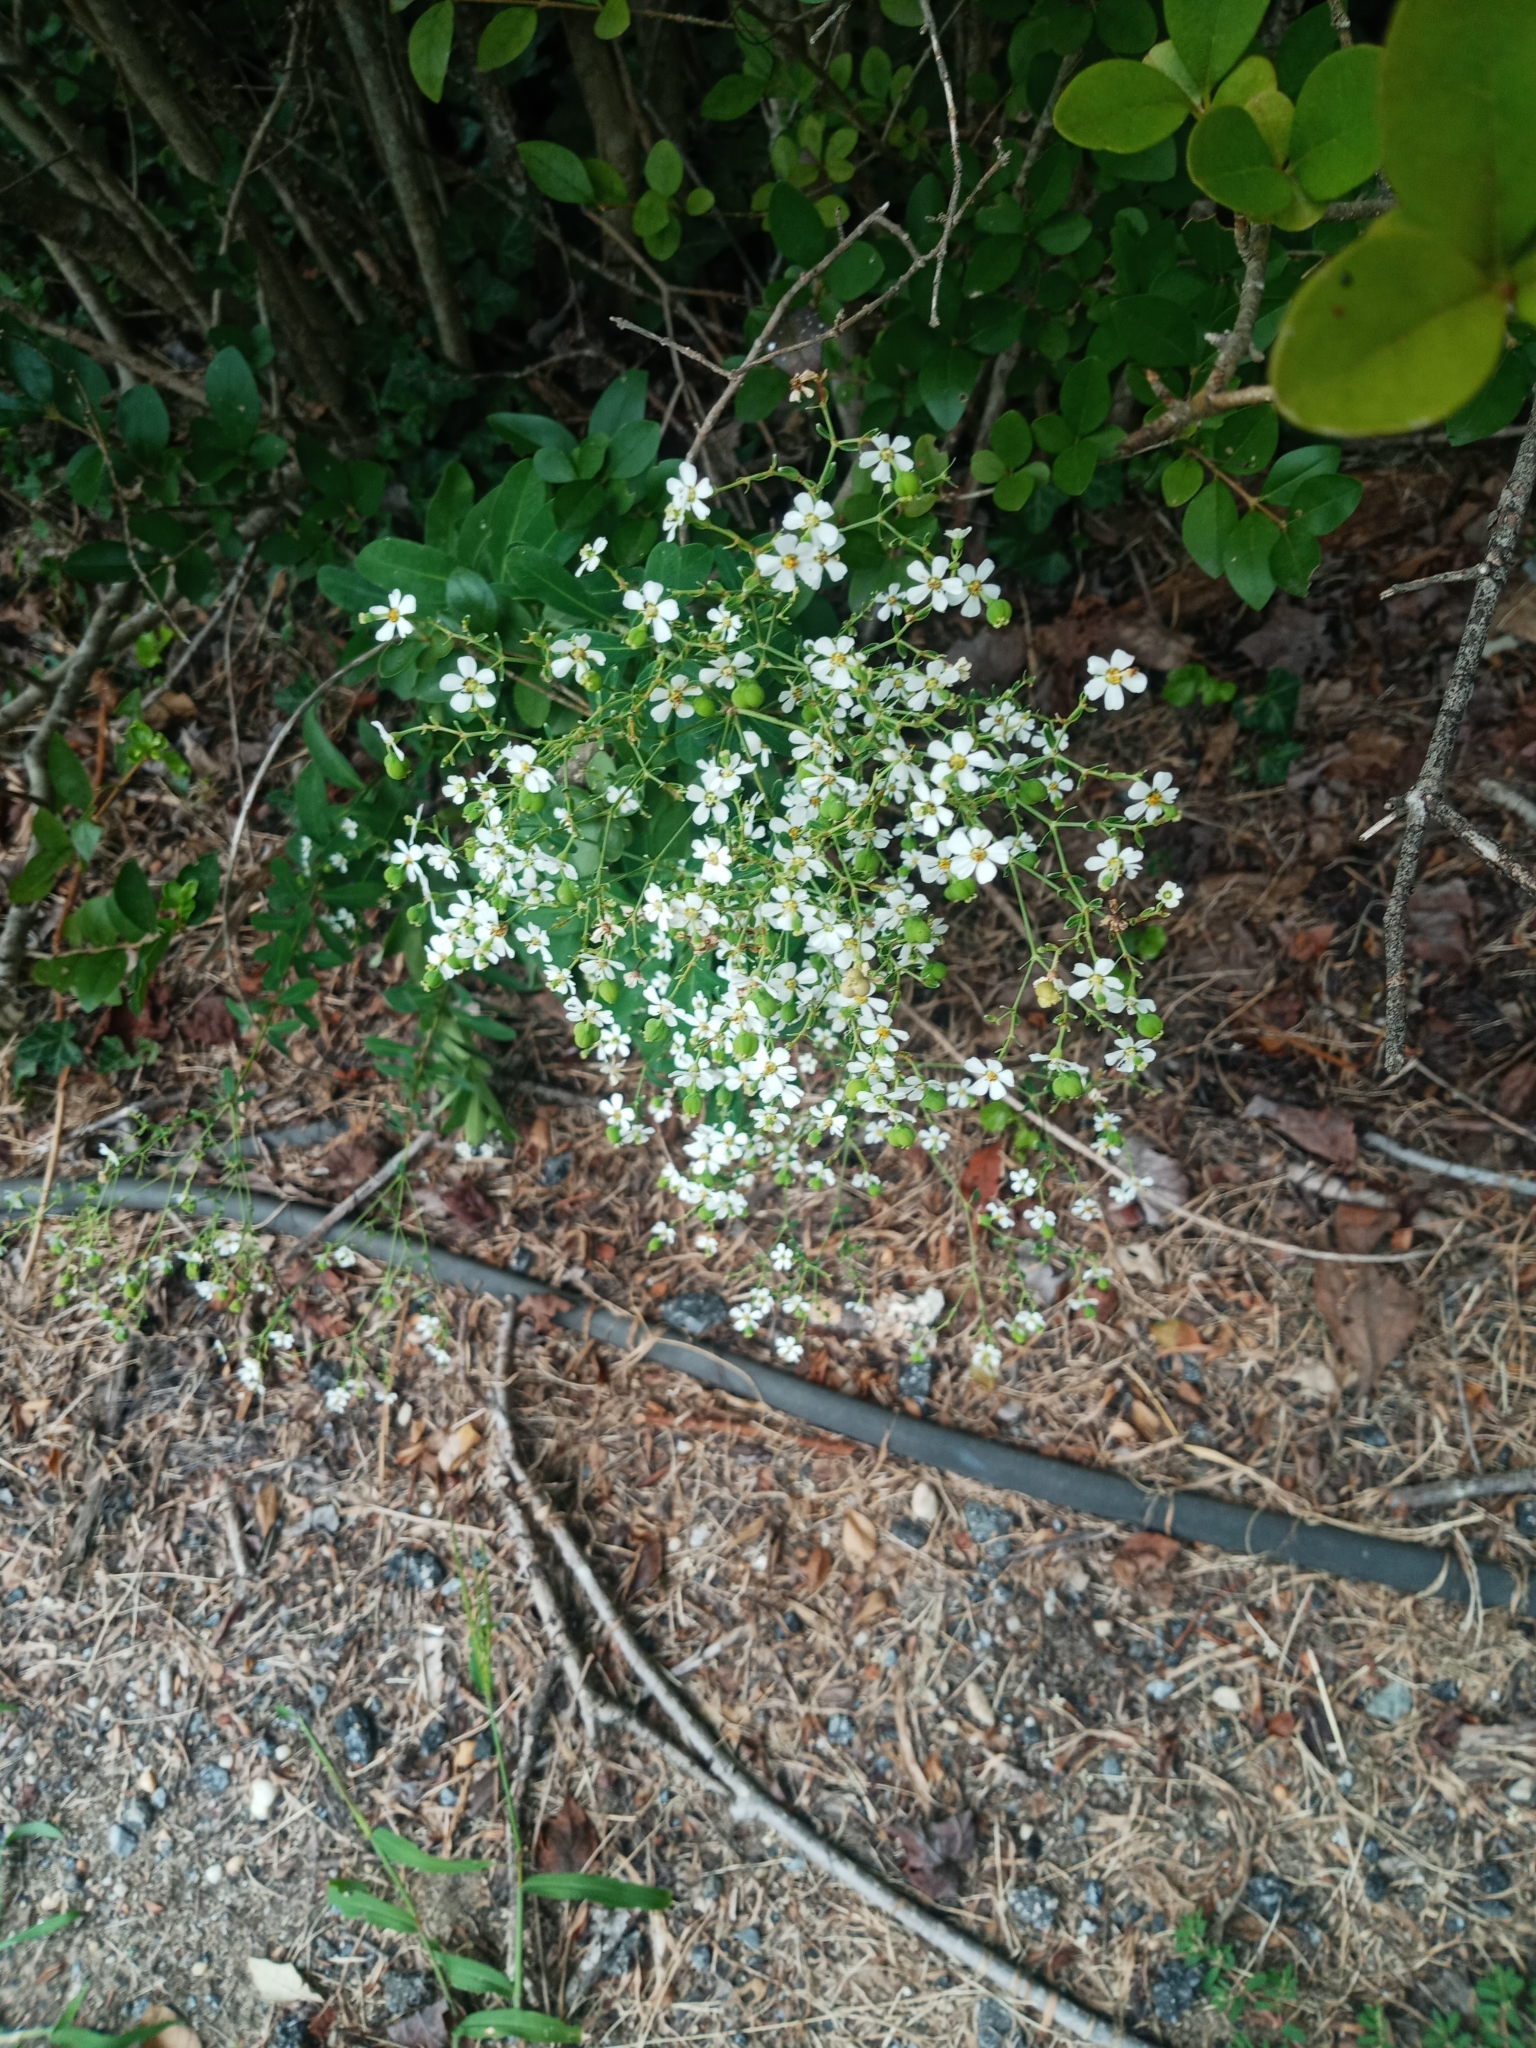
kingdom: Plantae
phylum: Tracheophyta
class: Magnoliopsida
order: Malpighiales
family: Euphorbiaceae
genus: Euphorbia
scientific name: Euphorbia corollata
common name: Flowering spurge
